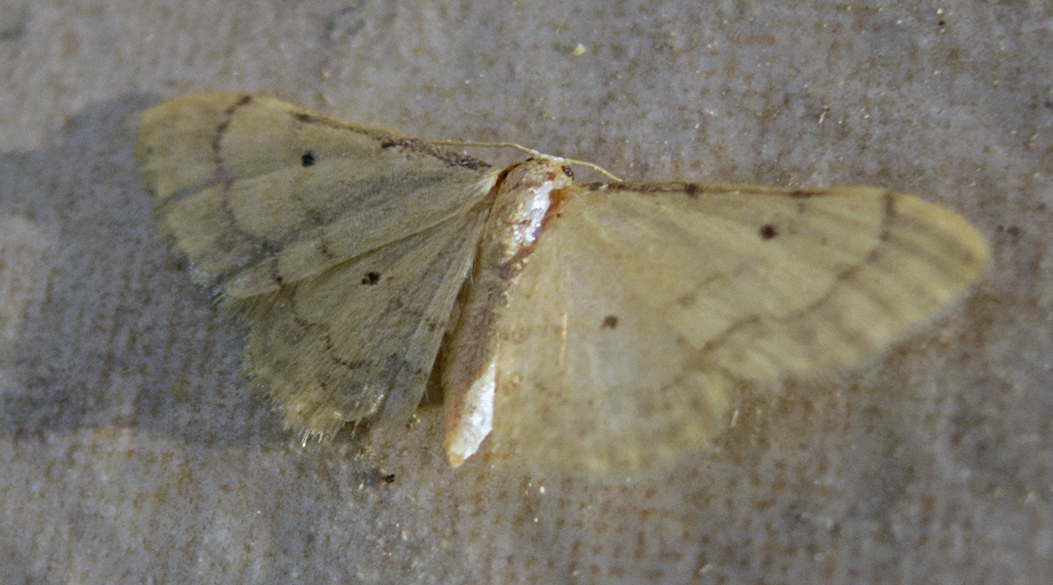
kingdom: Animalia
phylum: Arthropoda
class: Insecta
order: Lepidoptera
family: Geometridae
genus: Idaea
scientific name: Idaea politaria
